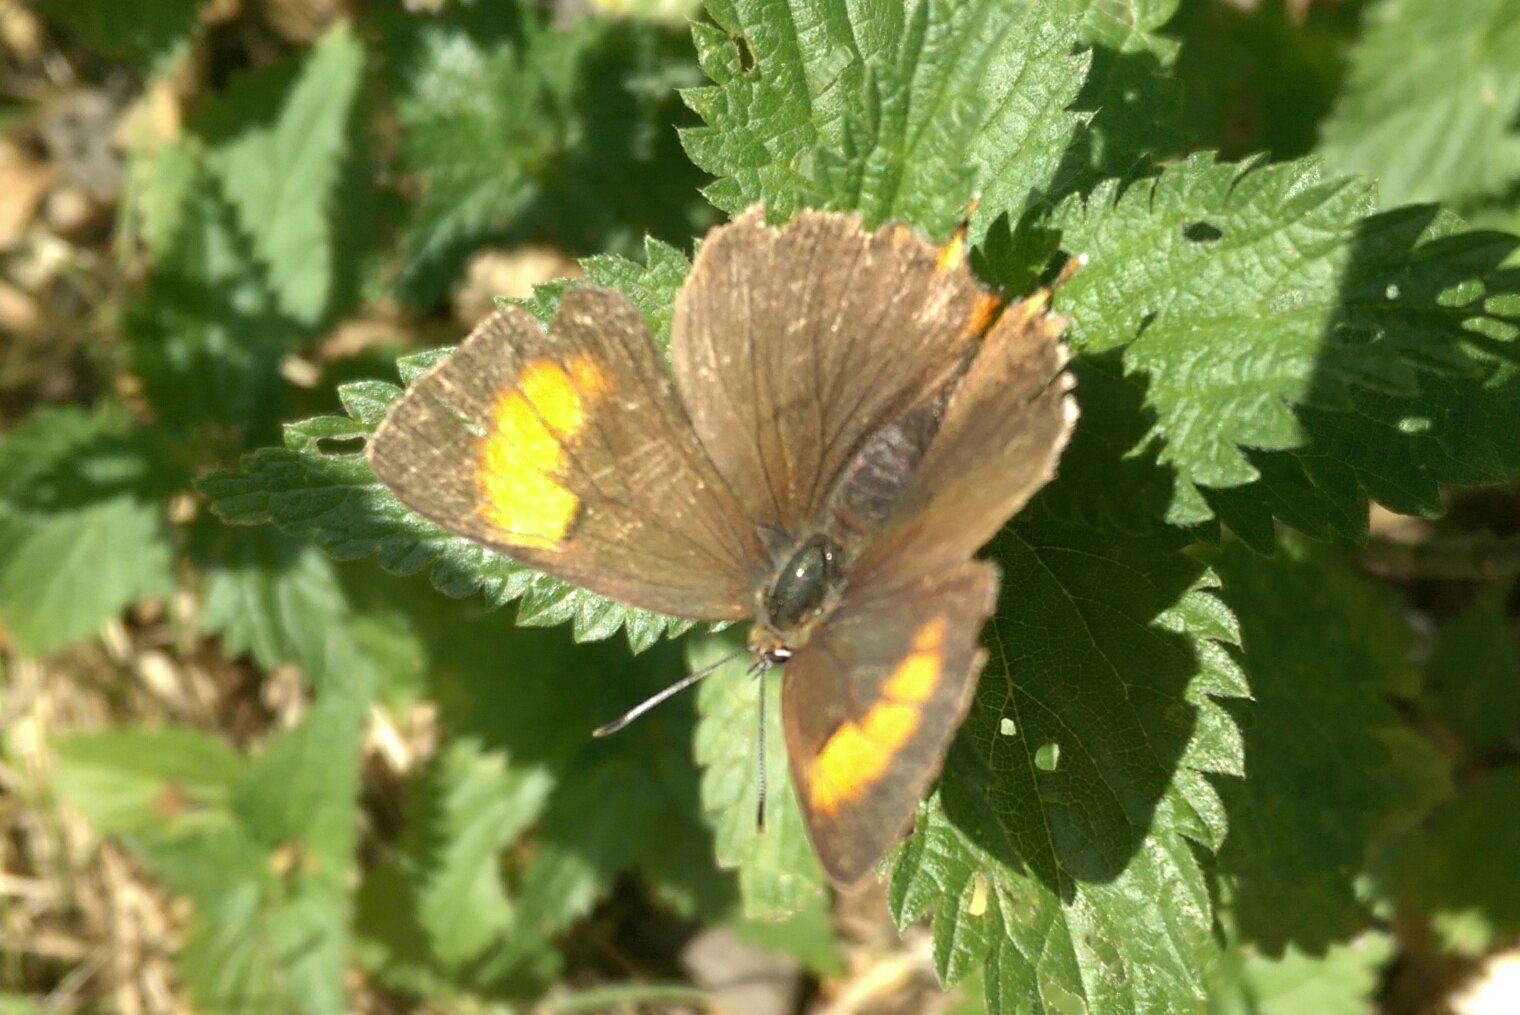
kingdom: Animalia
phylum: Arthropoda
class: Insecta
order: Lepidoptera
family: Lycaenidae
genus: Thecla
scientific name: Thecla betulae
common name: Brown hairstreak
